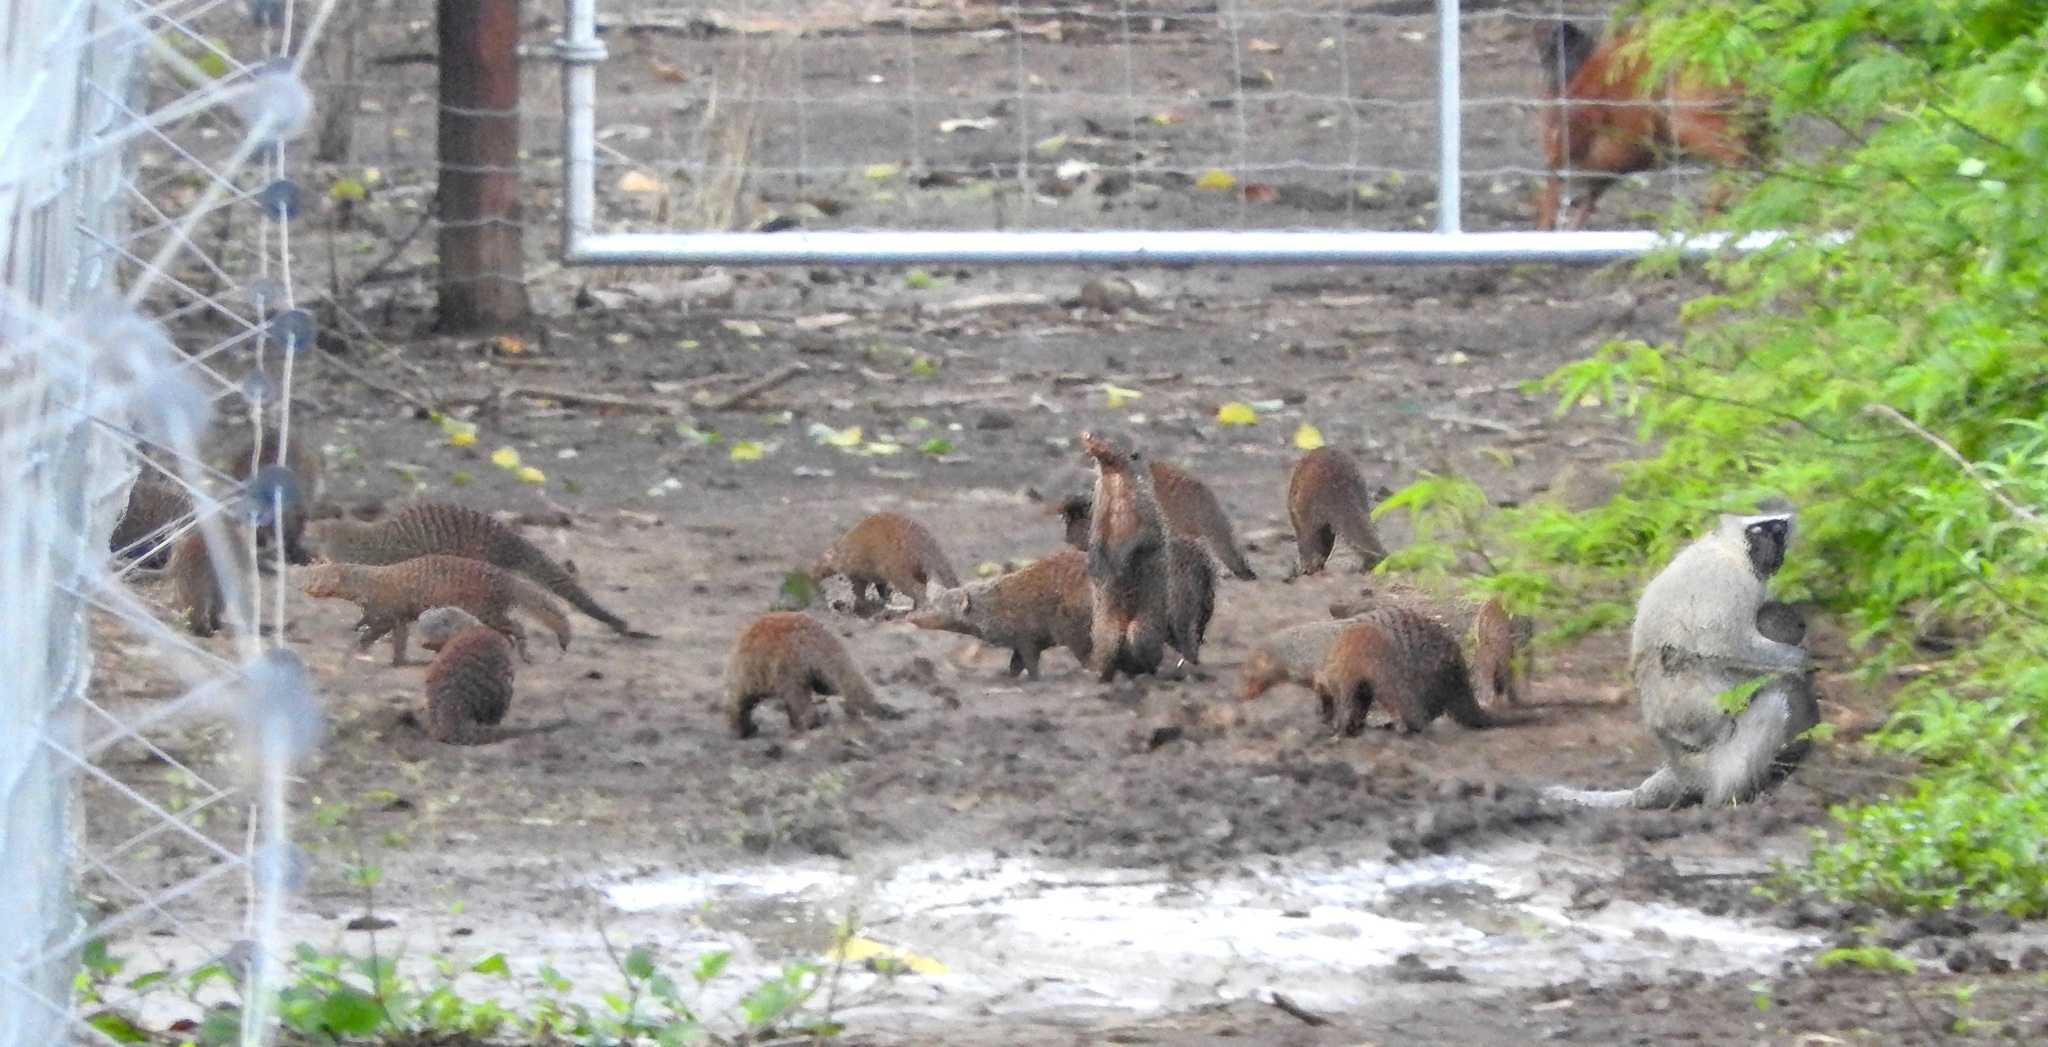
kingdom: Animalia
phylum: Chordata
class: Mammalia
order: Carnivora
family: Herpestidae
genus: Mungos
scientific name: Mungos mungo
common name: Banded mongoose
